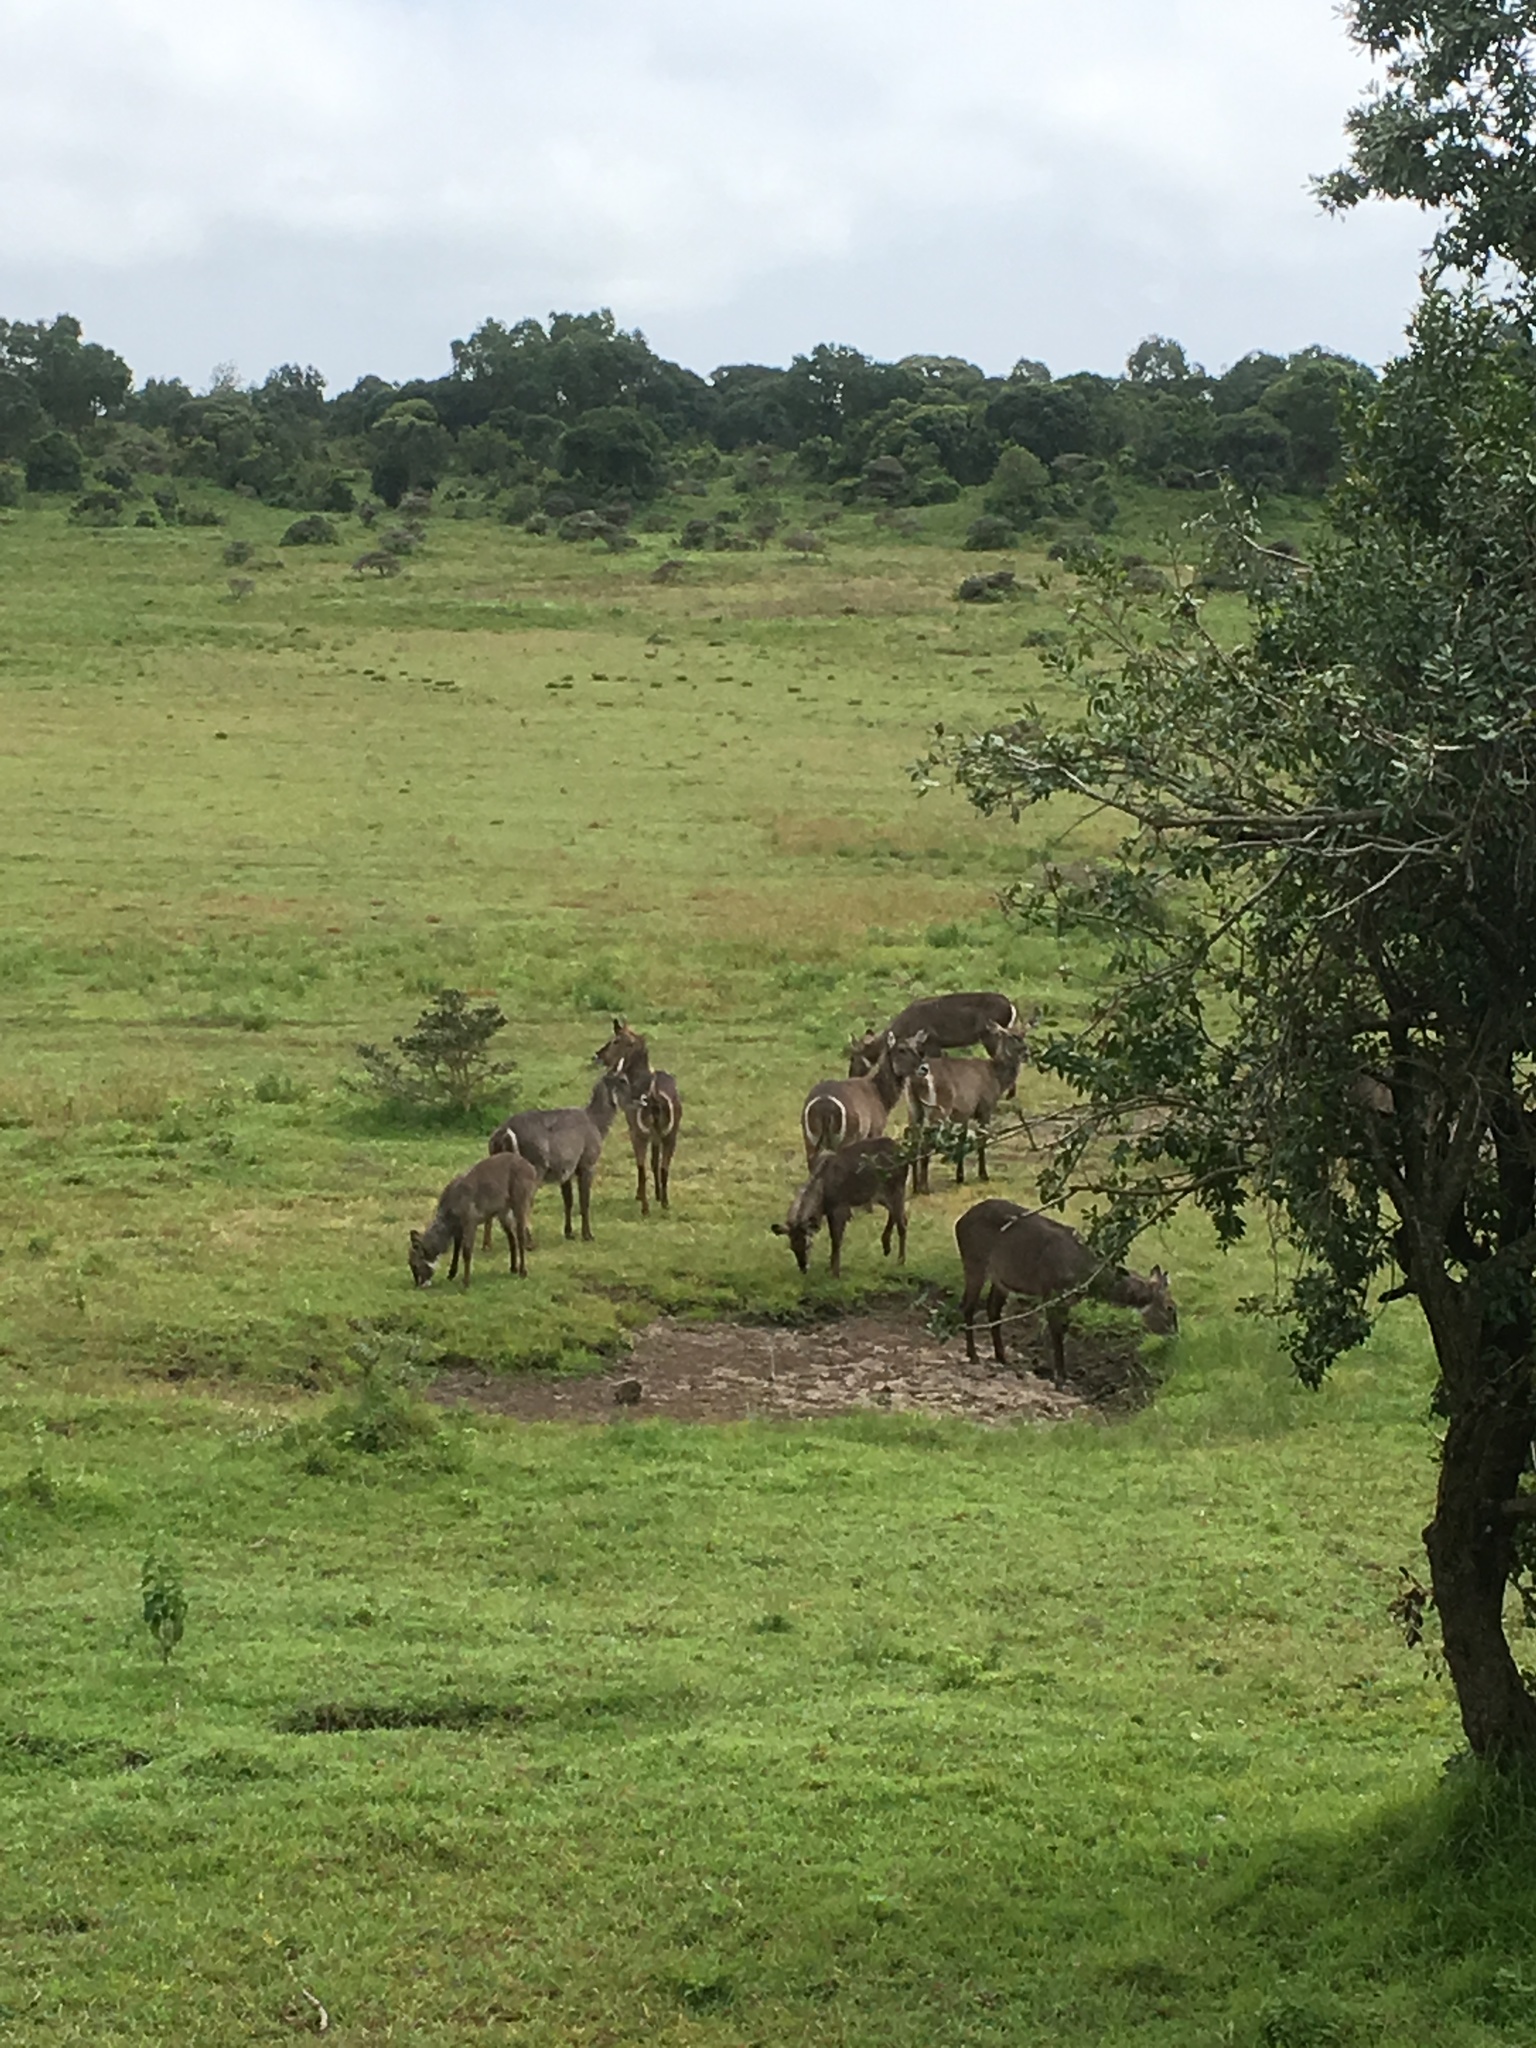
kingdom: Animalia
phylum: Chordata
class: Mammalia
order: Artiodactyla
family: Bovidae
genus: Kobus
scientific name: Kobus ellipsiprymnus
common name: Waterbuck
